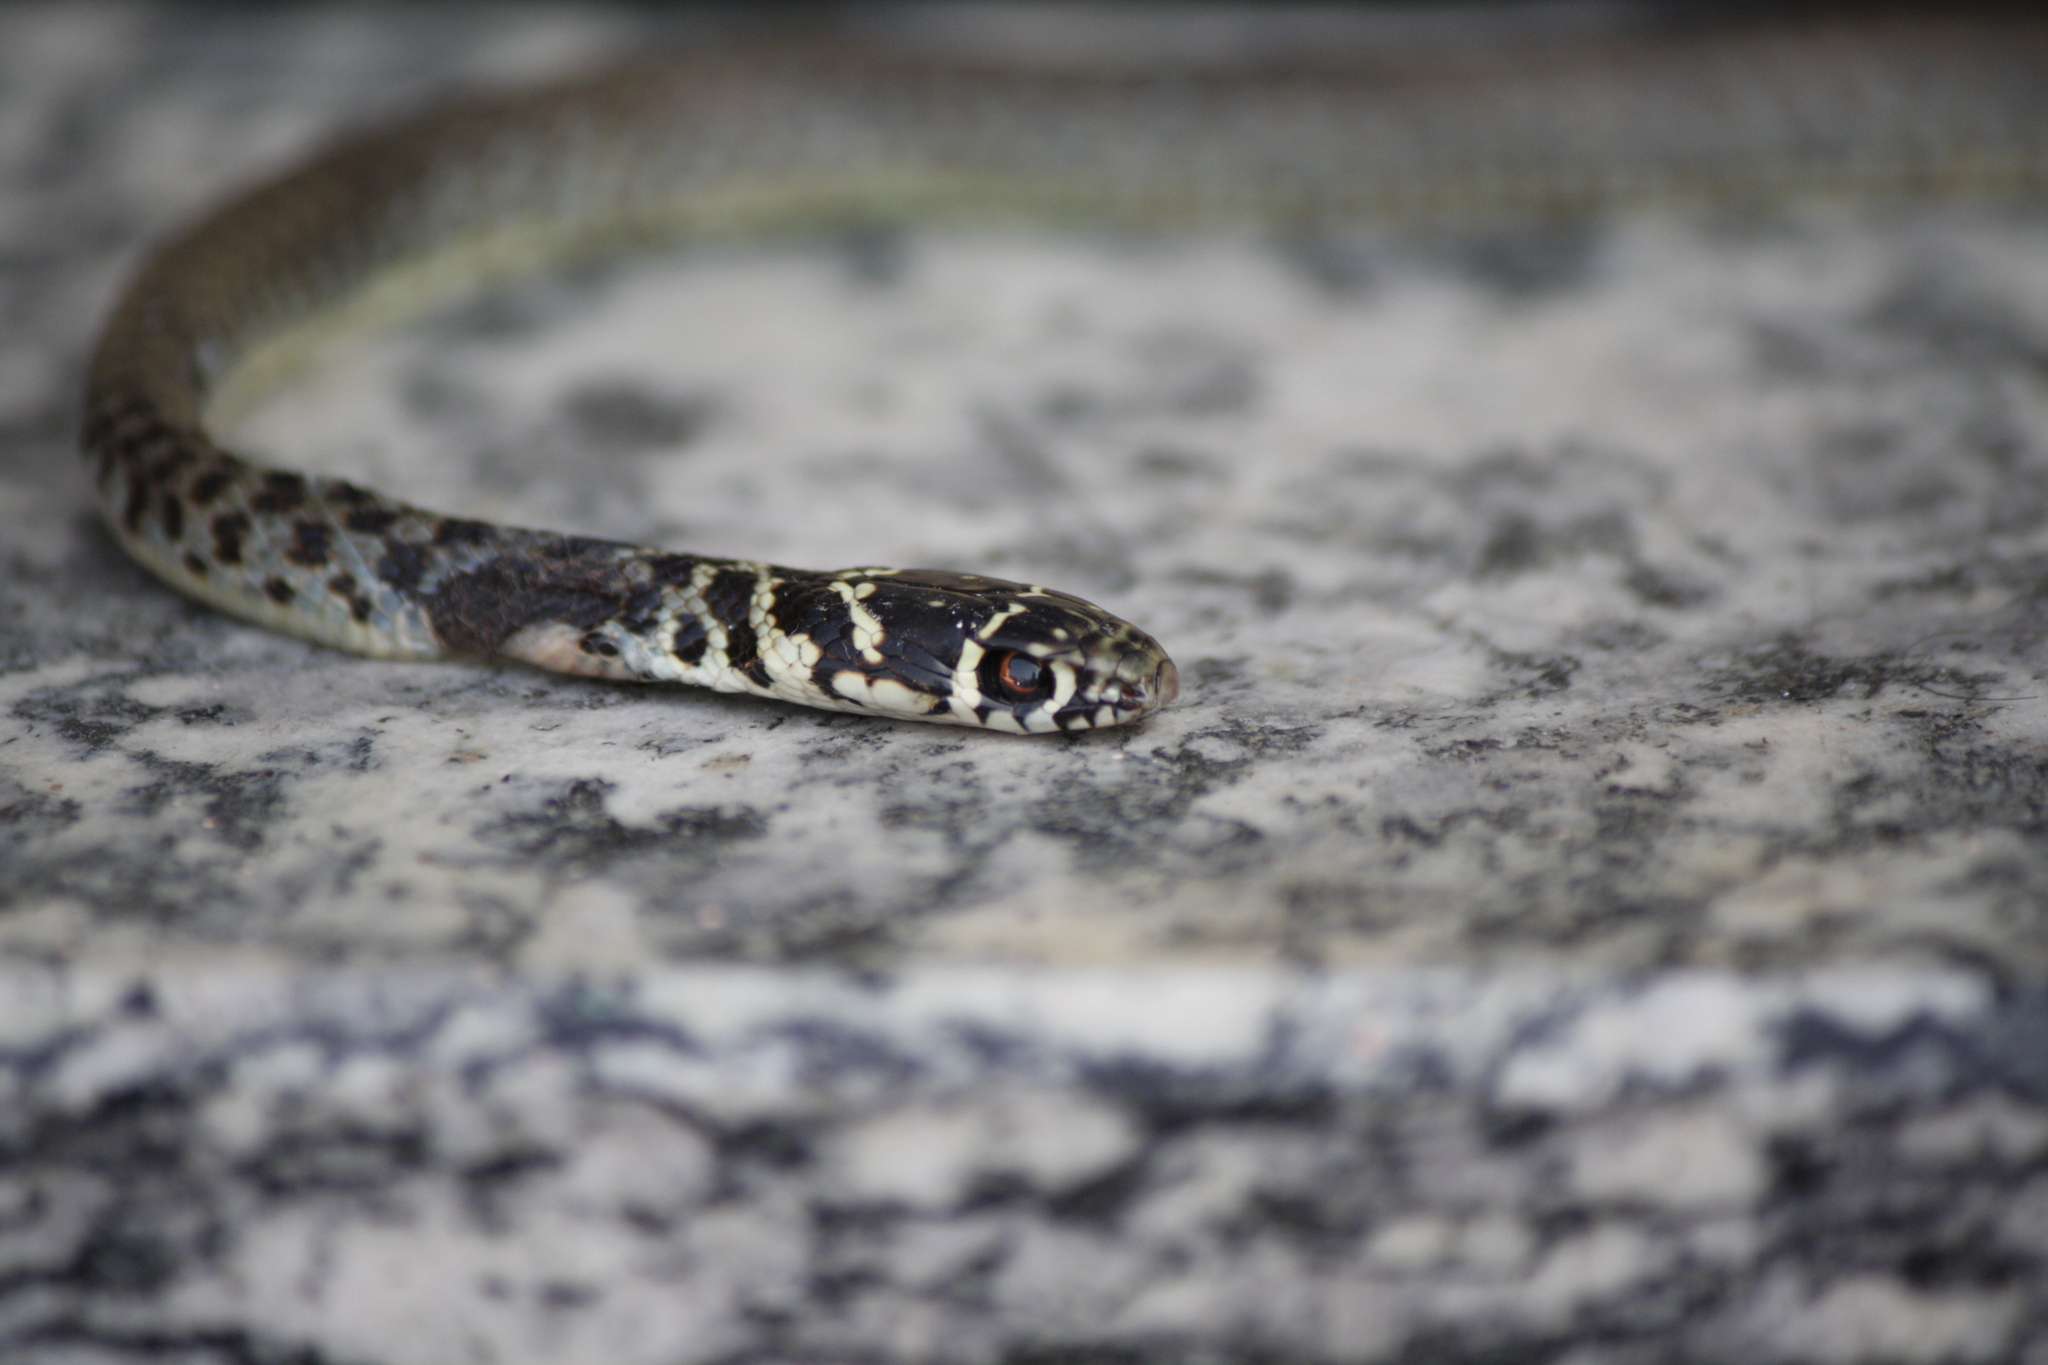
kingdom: Animalia
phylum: Chordata
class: Squamata
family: Colubridae
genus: Hierophis
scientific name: Hierophis viridiflavus
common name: Green whip snake
